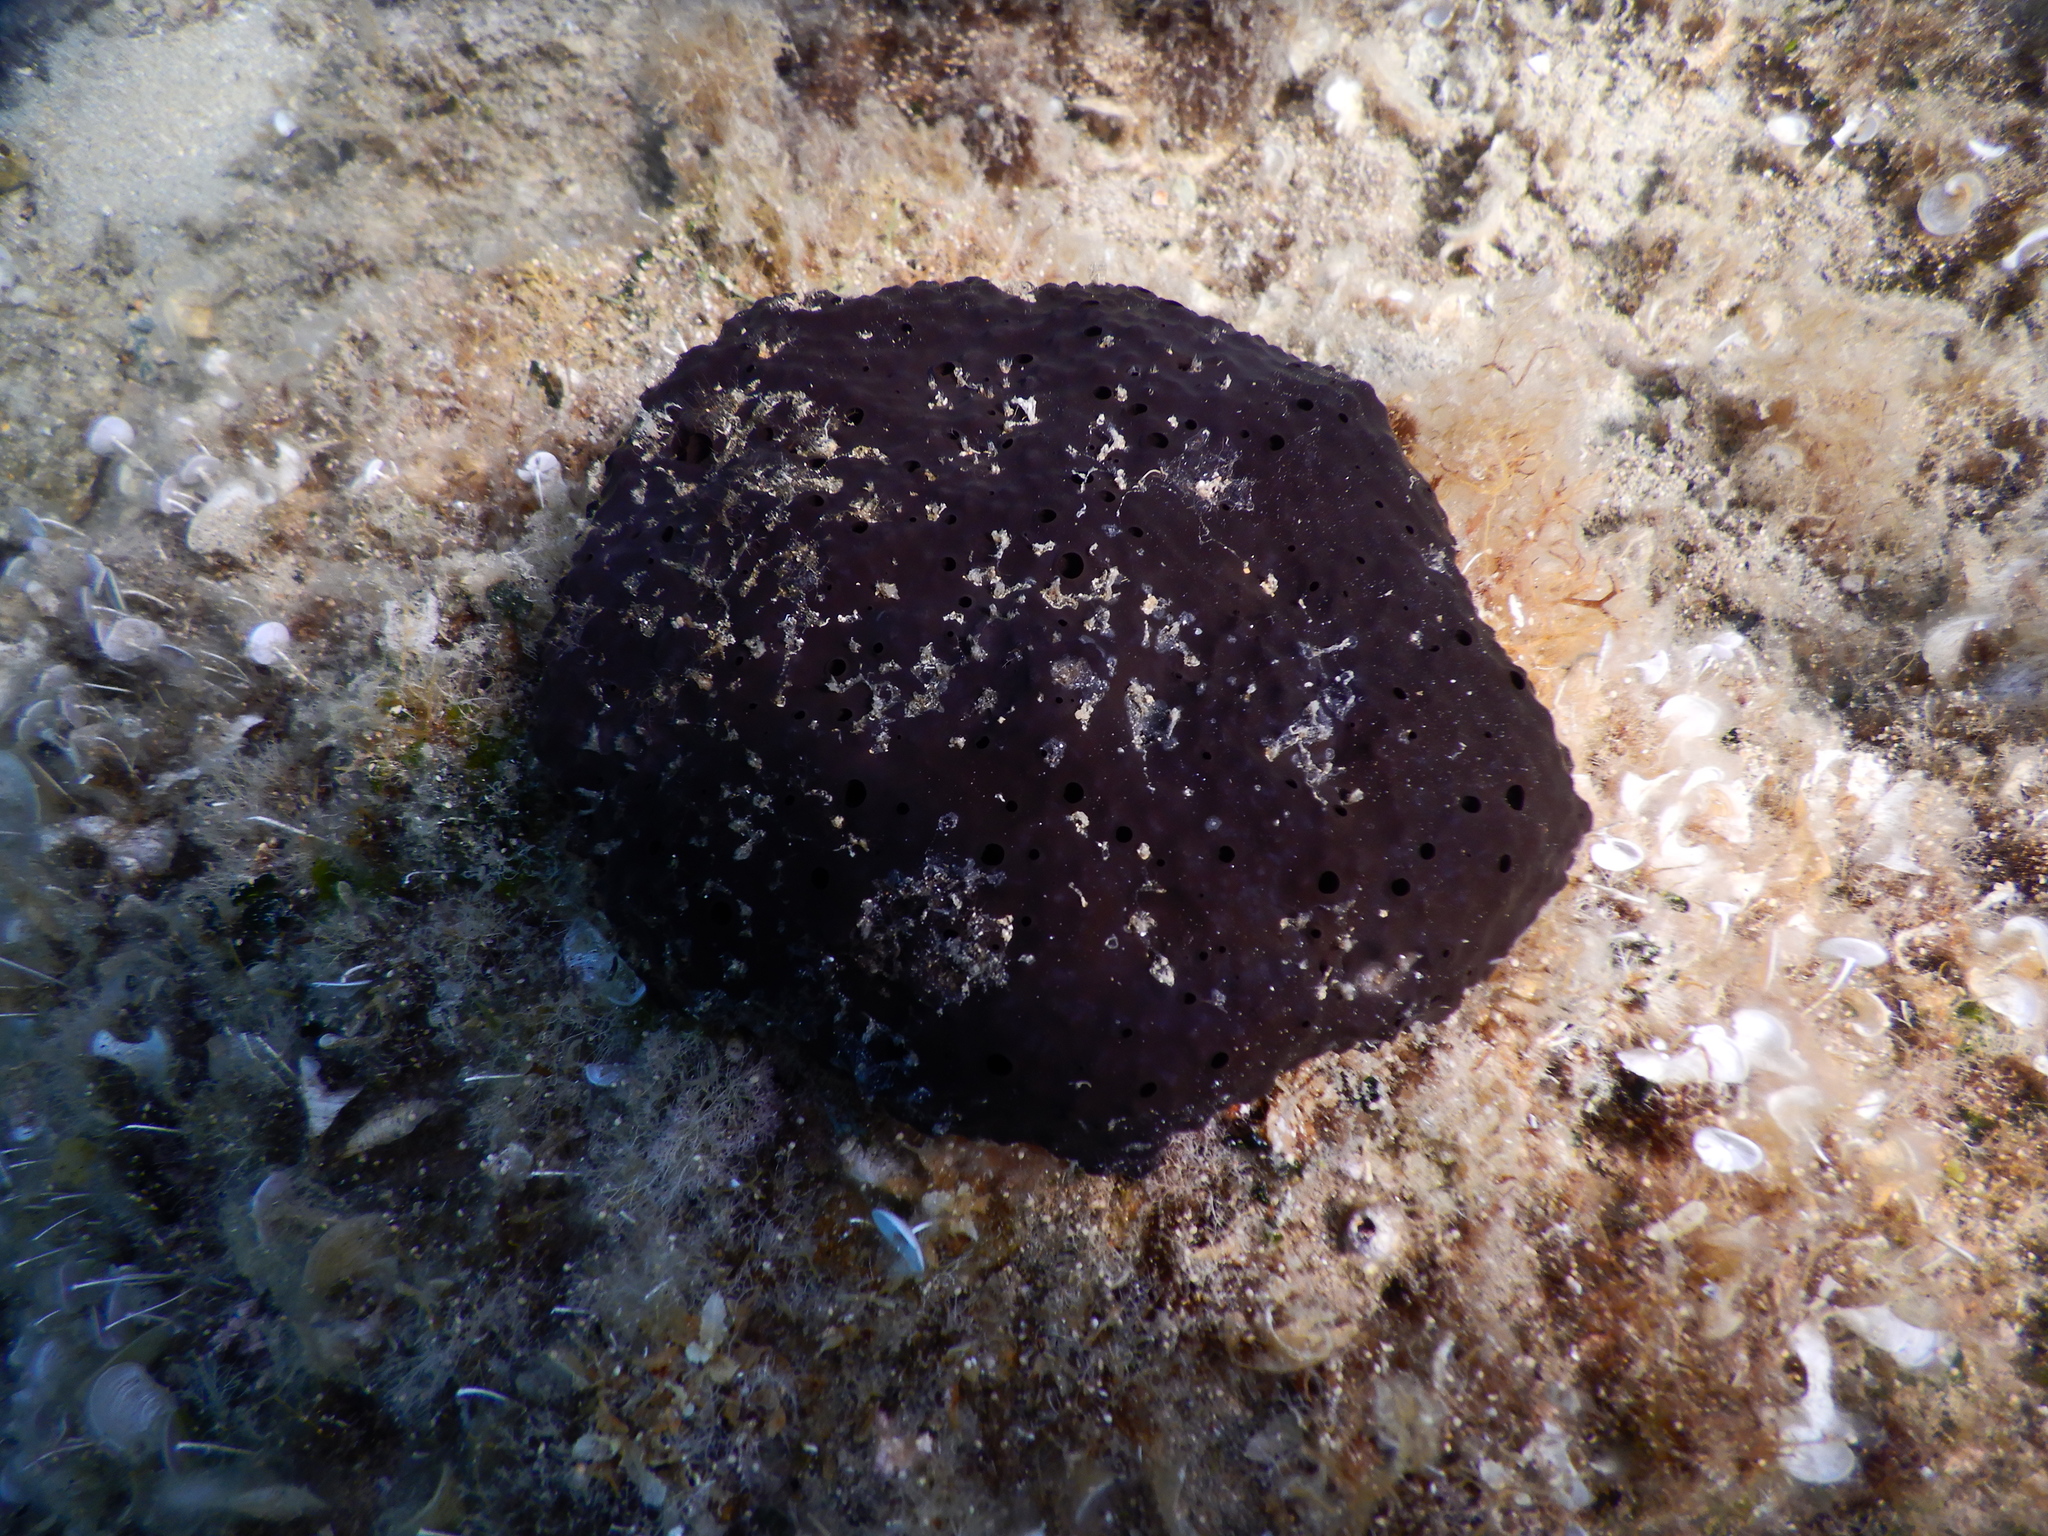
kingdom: Animalia
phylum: Porifera
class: Demospongiae
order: Dictyoceratida
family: Irciniidae
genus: Sarcotragus
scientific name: Sarcotragus spinosulus
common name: Black leather sponge
